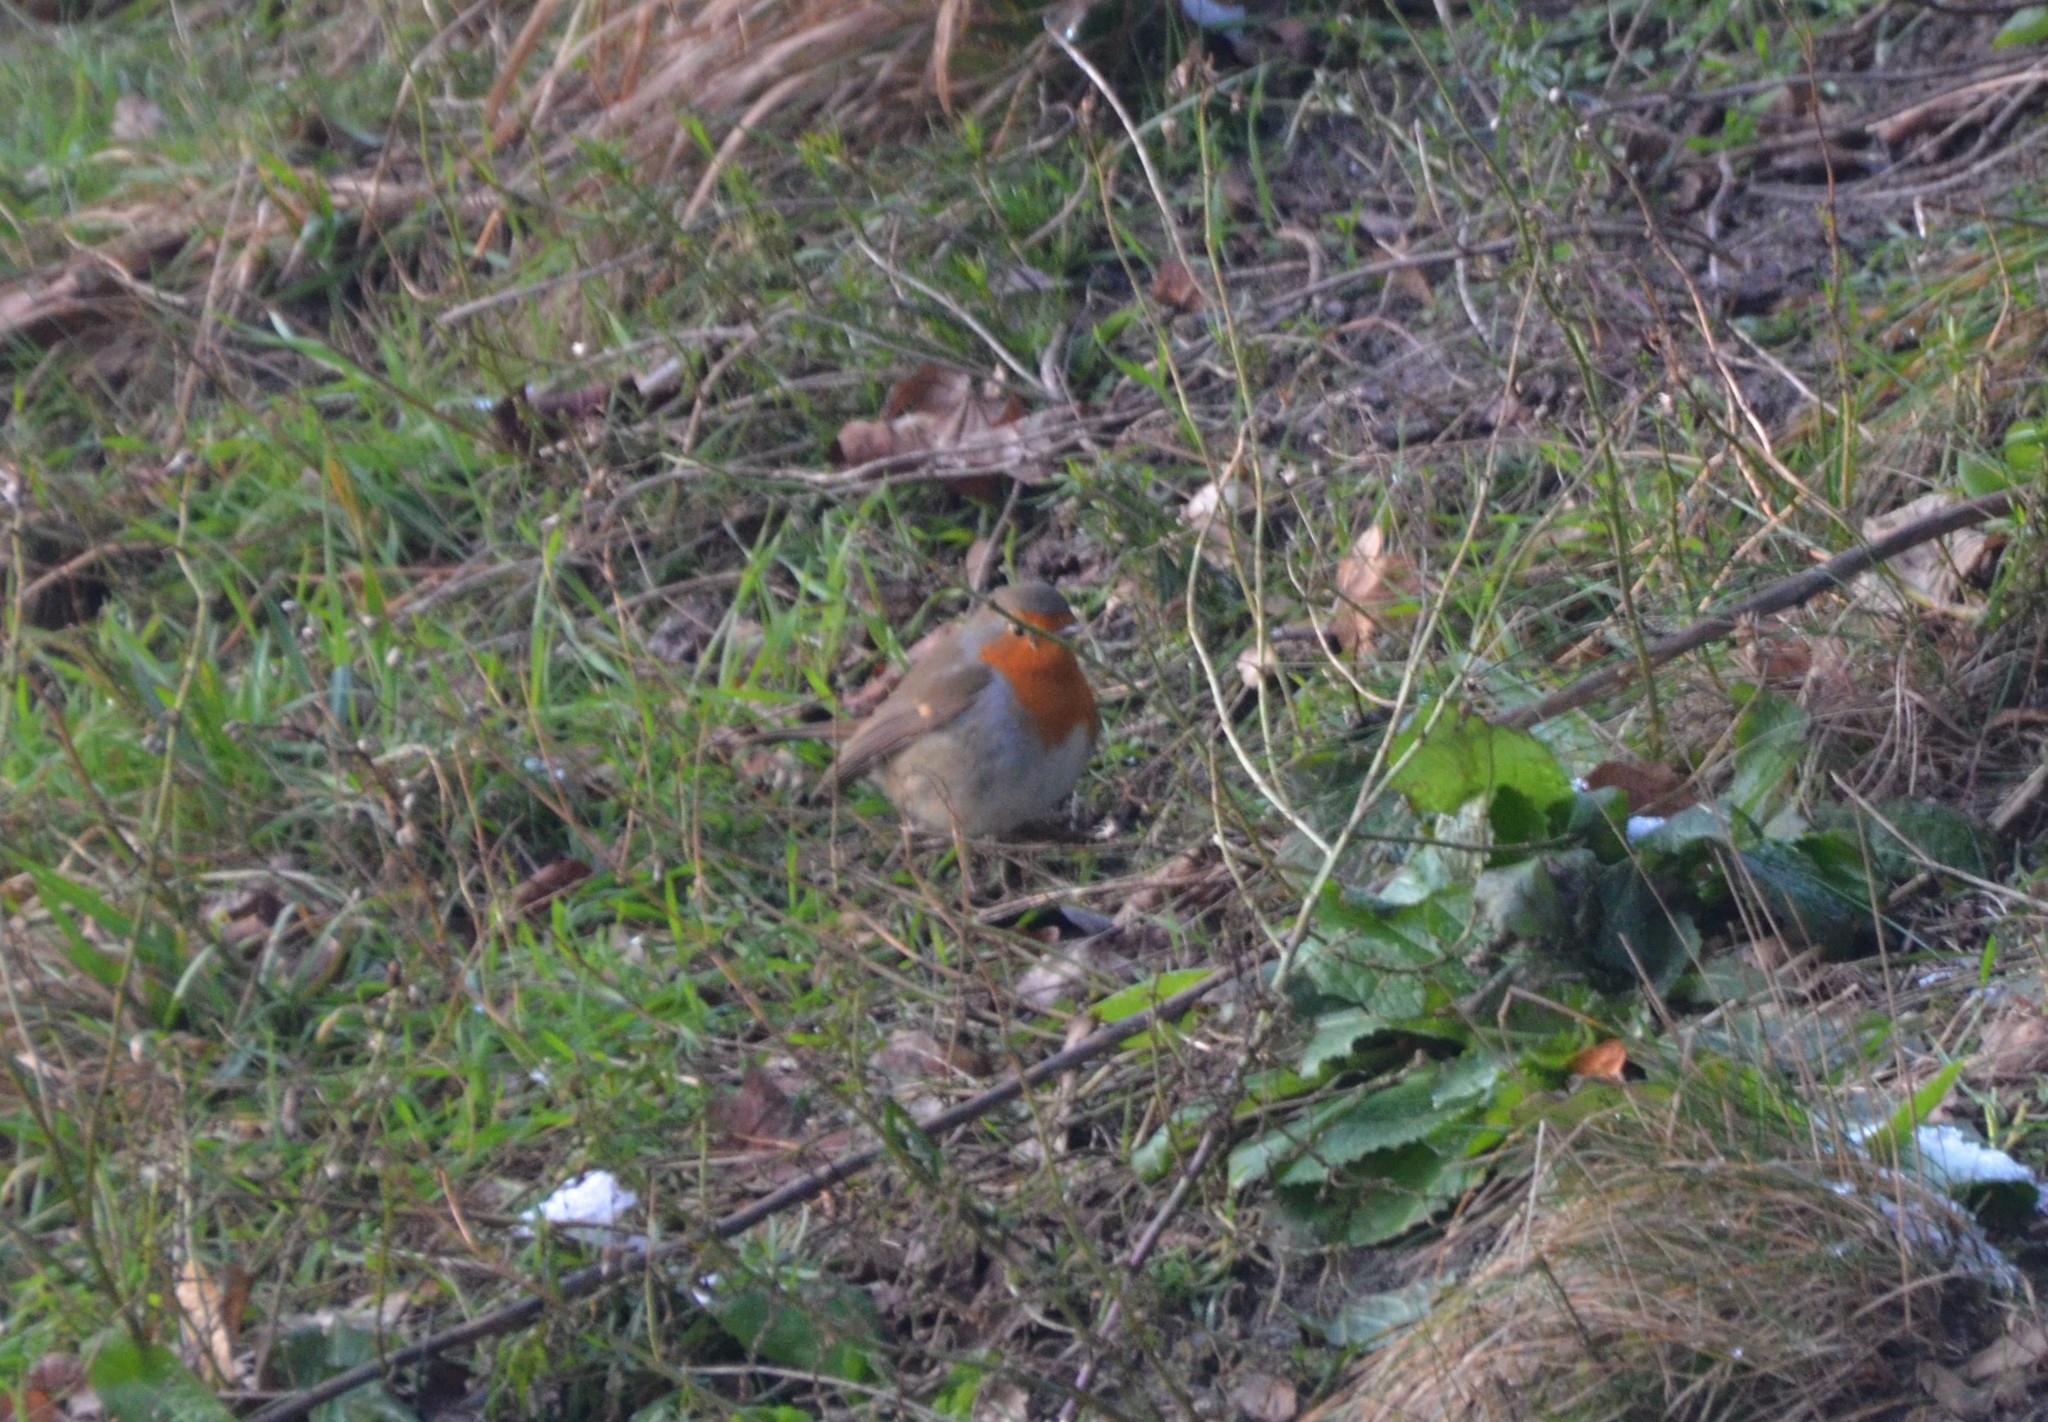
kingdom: Animalia
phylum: Chordata
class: Aves
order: Passeriformes
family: Muscicapidae
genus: Erithacus
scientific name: Erithacus rubecula
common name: European robin
